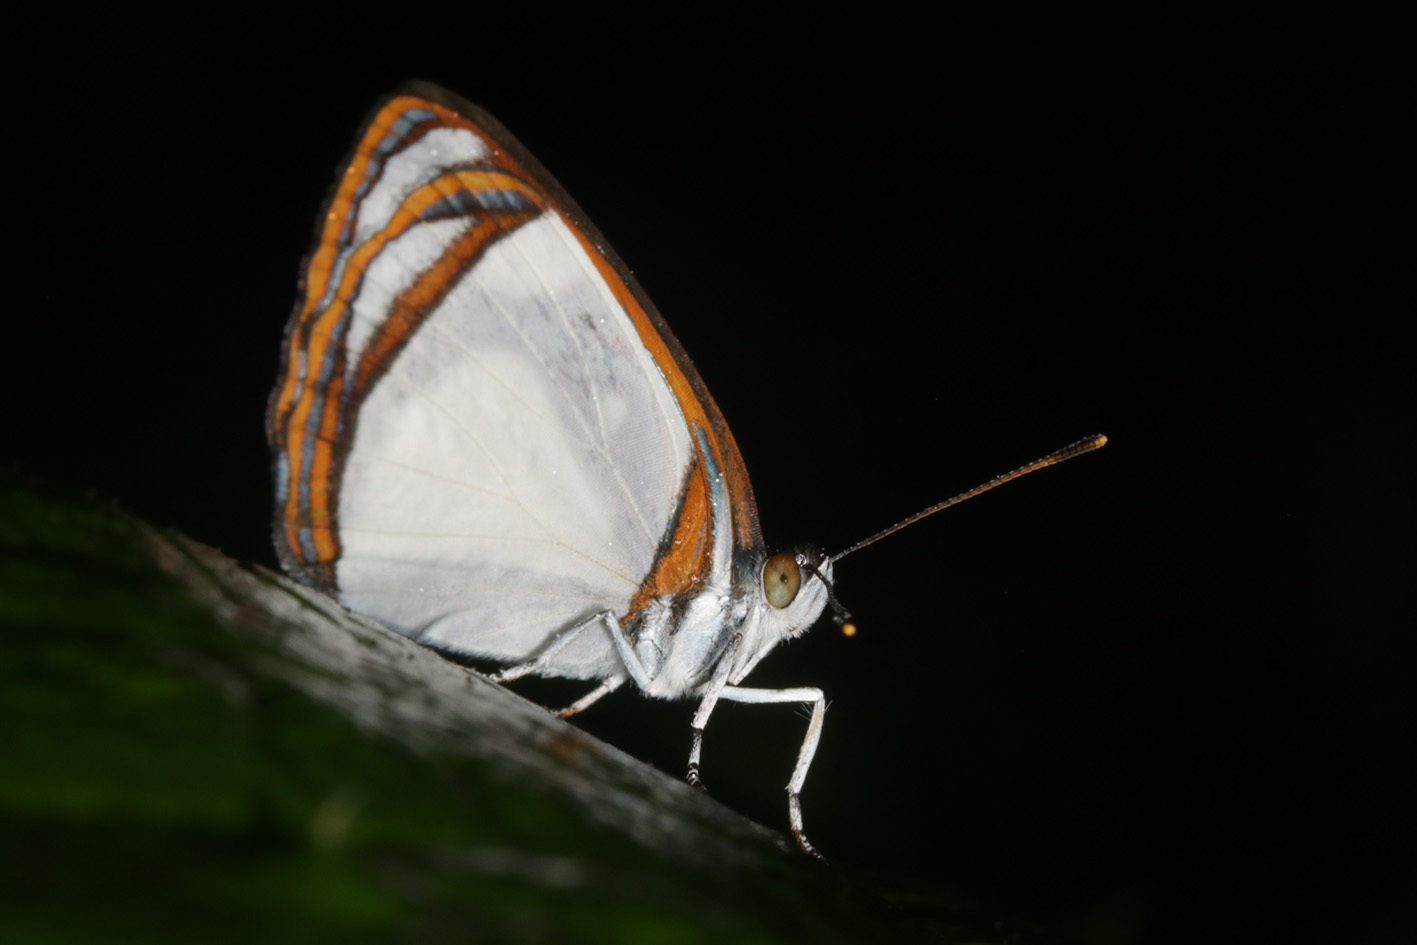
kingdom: Animalia
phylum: Arthropoda
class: Insecta
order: Lepidoptera
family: Nymphalidae
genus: Dynamine
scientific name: Dynamine agacles
